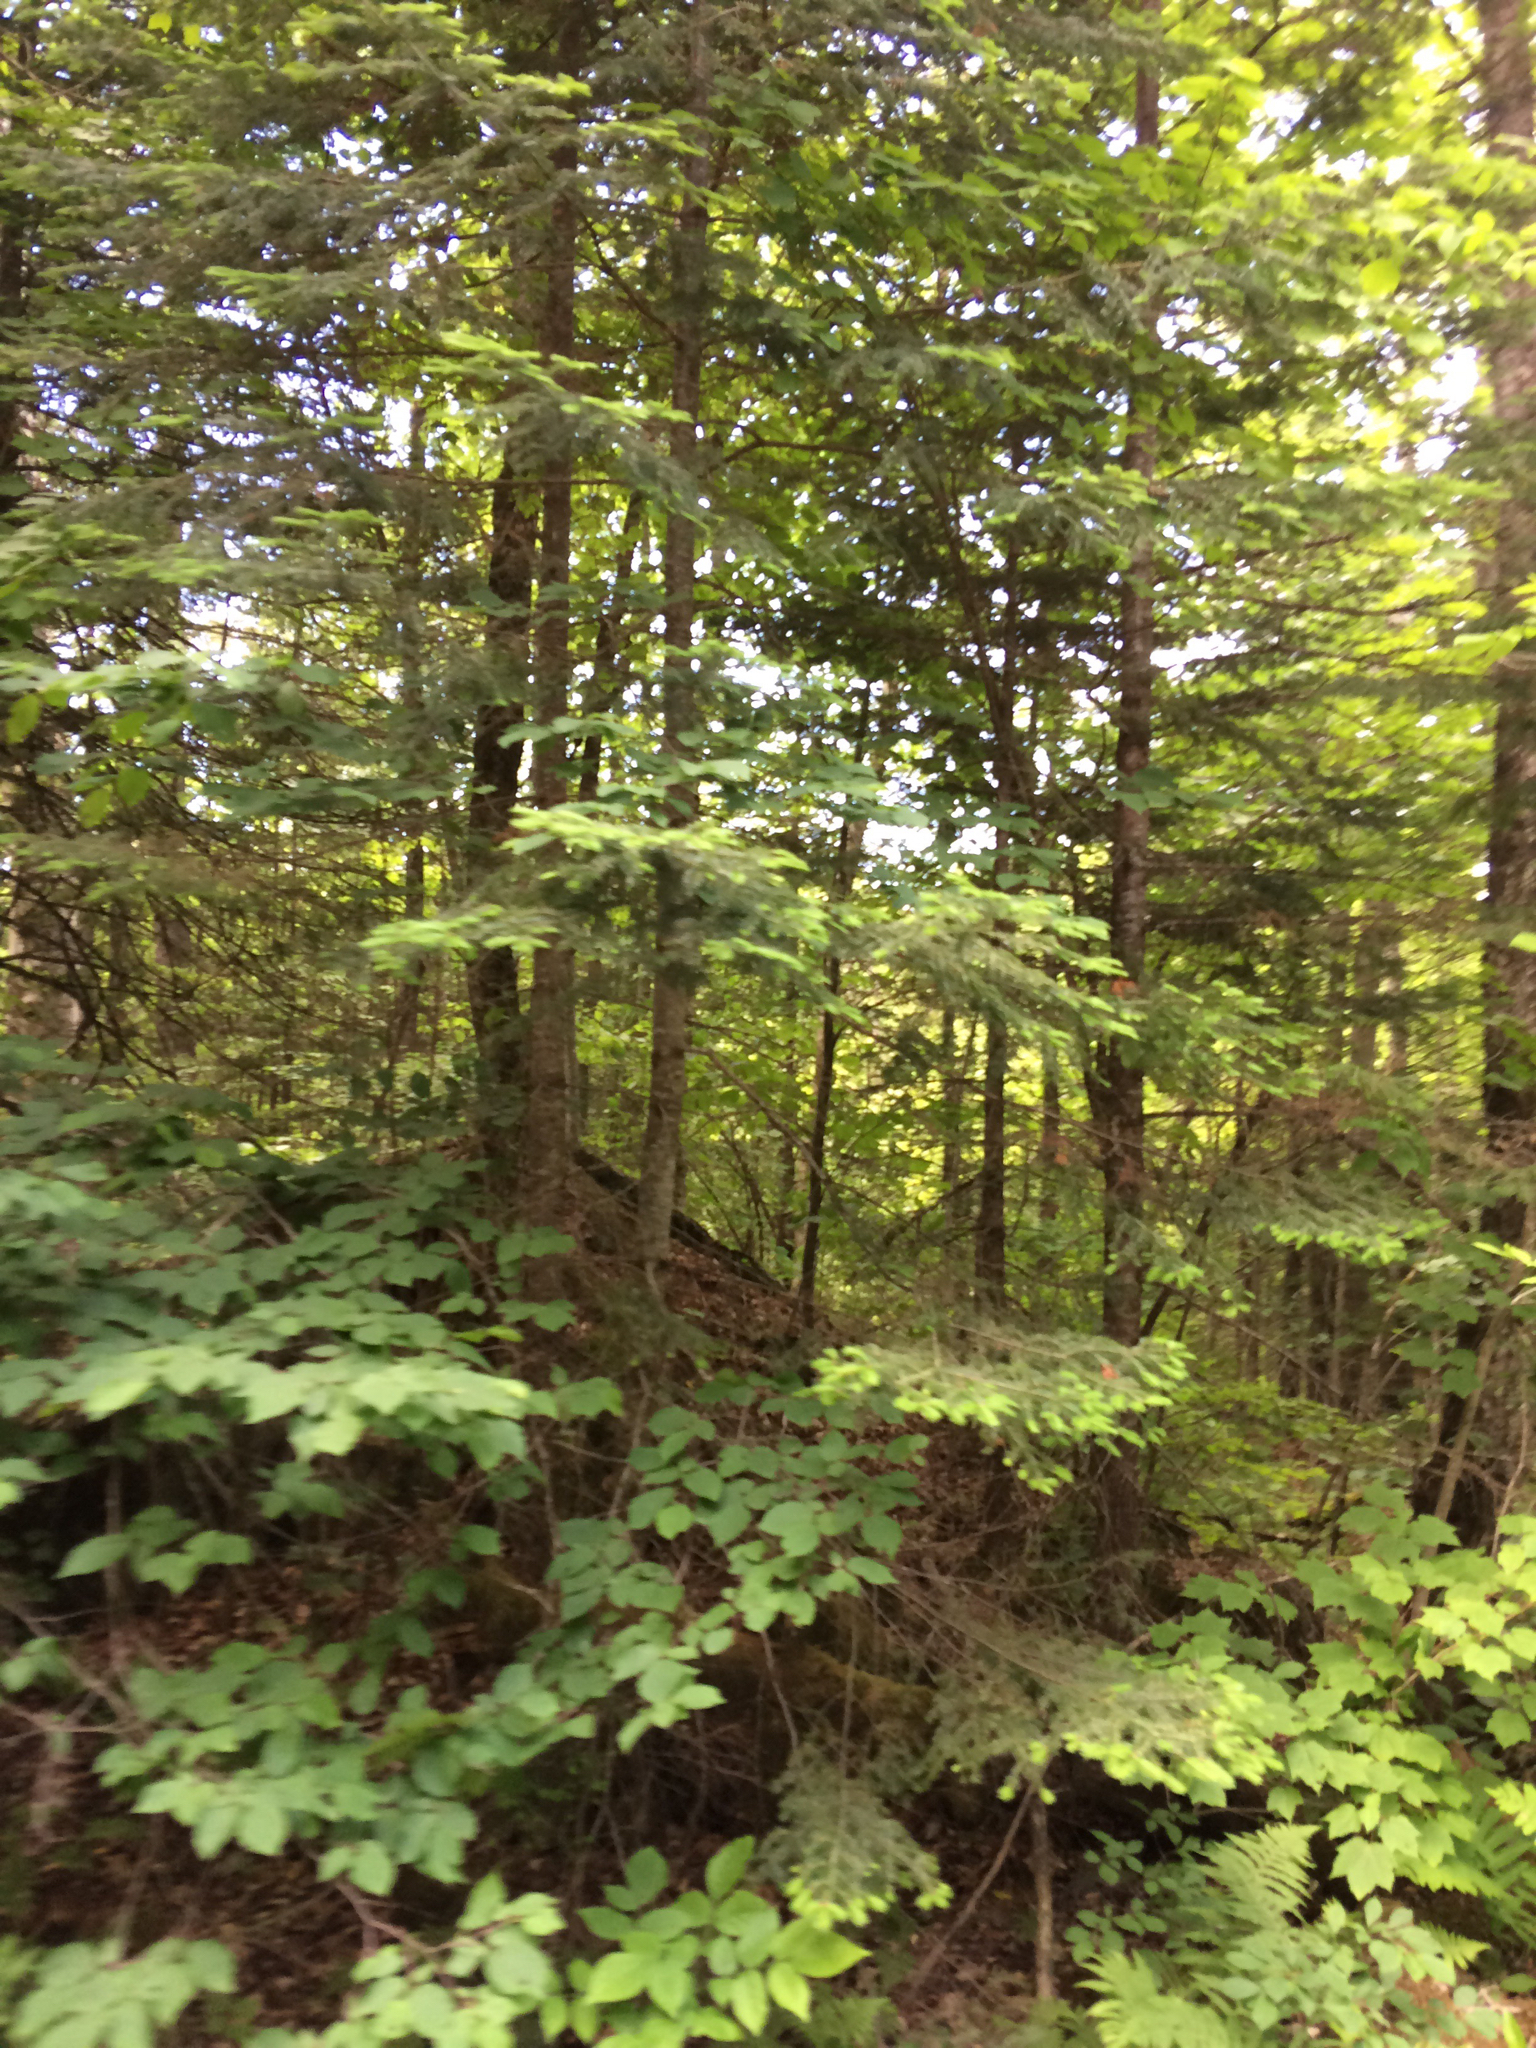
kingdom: Plantae
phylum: Tracheophyta
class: Pinopsida
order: Pinales
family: Pinaceae
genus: Abies
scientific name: Abies balsamea
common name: Balsam fir
